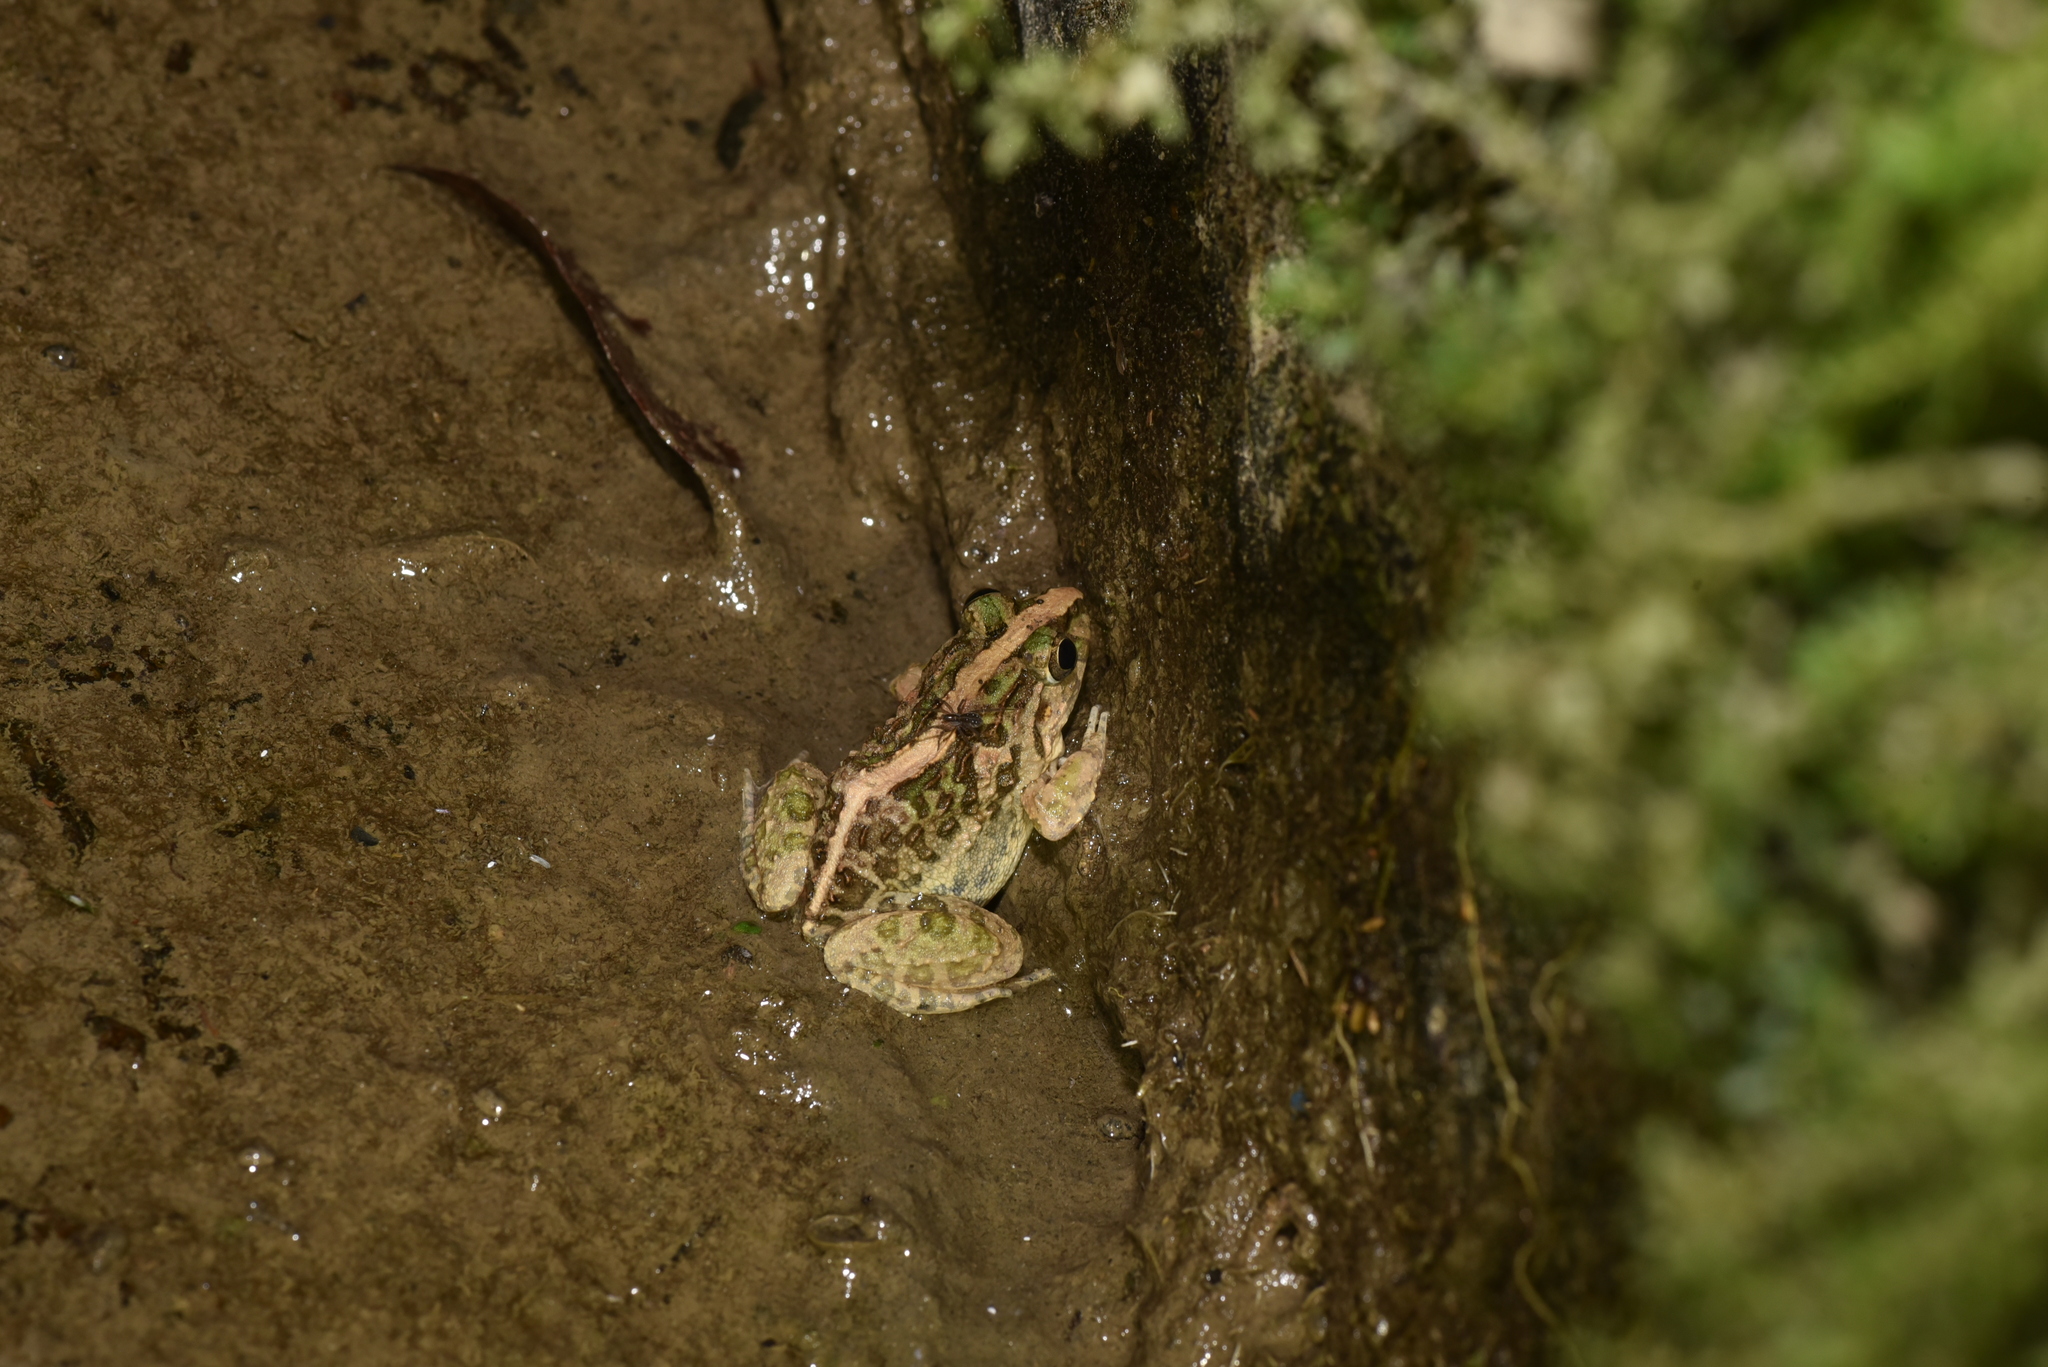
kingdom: Animalia
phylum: Chordata
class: Amphibia
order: Anura
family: Dicroglossidae
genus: Fejervarya
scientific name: Fejervarya limnocharis
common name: Asian grass frog/common pond frog/field frog/grass frog/indian rice frog
